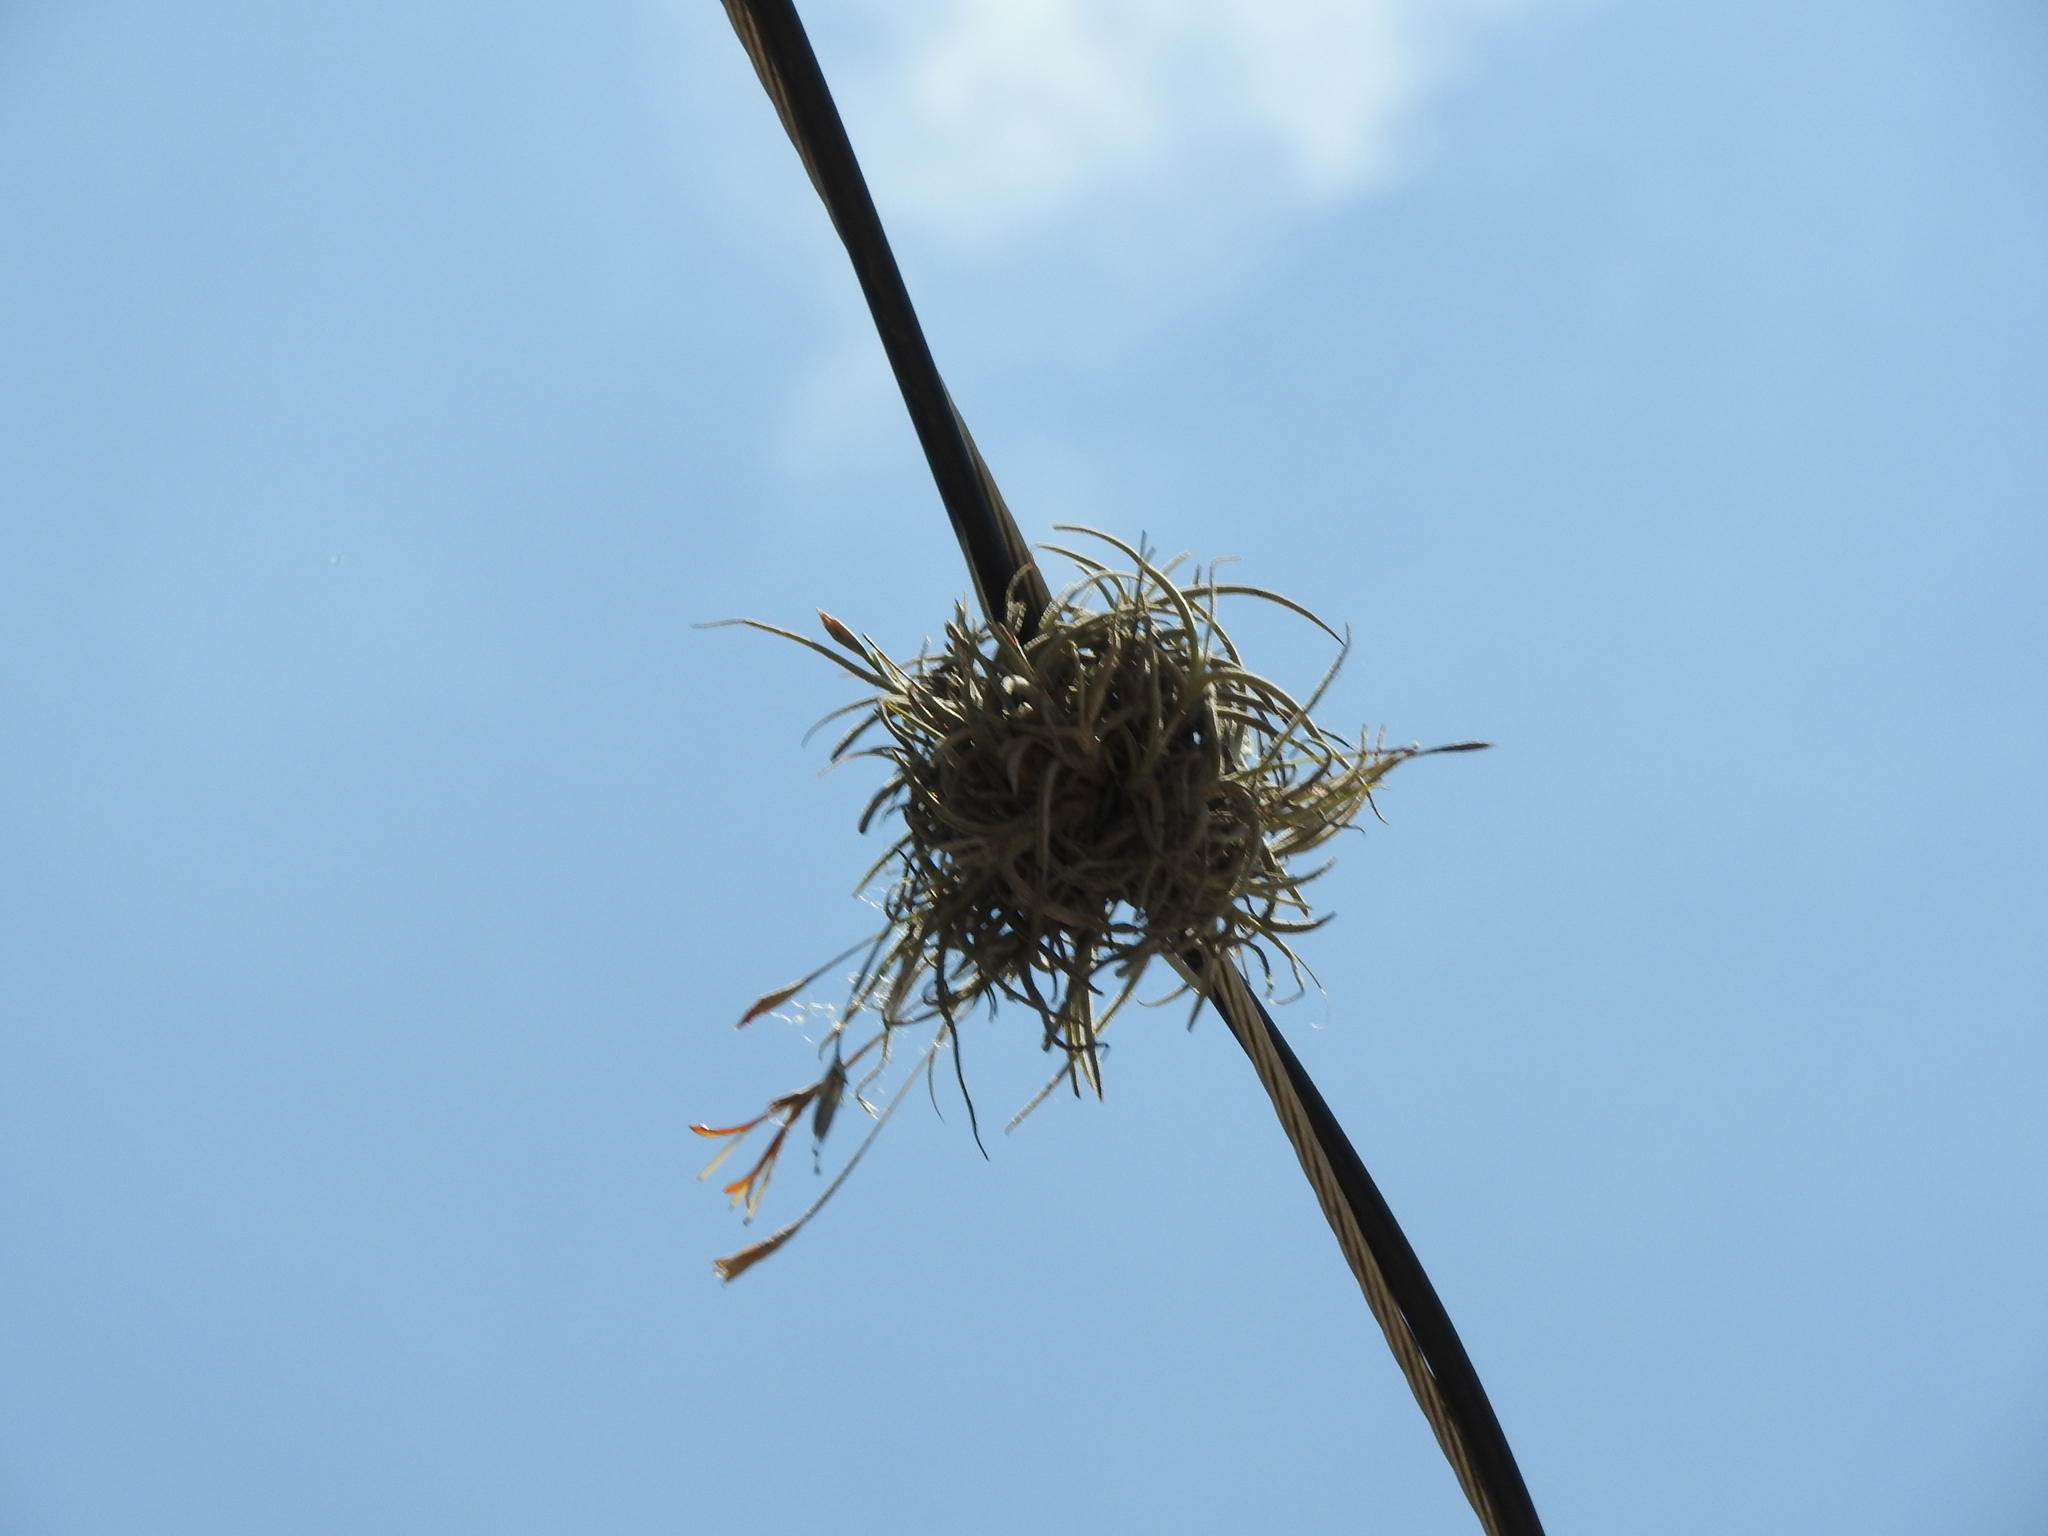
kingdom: Plantae
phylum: Tracheophyta
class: Liliopsida
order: Poales
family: Bromeliaceae
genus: Tillandsia
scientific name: Tillandsia recurvata
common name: Small ballmoss
